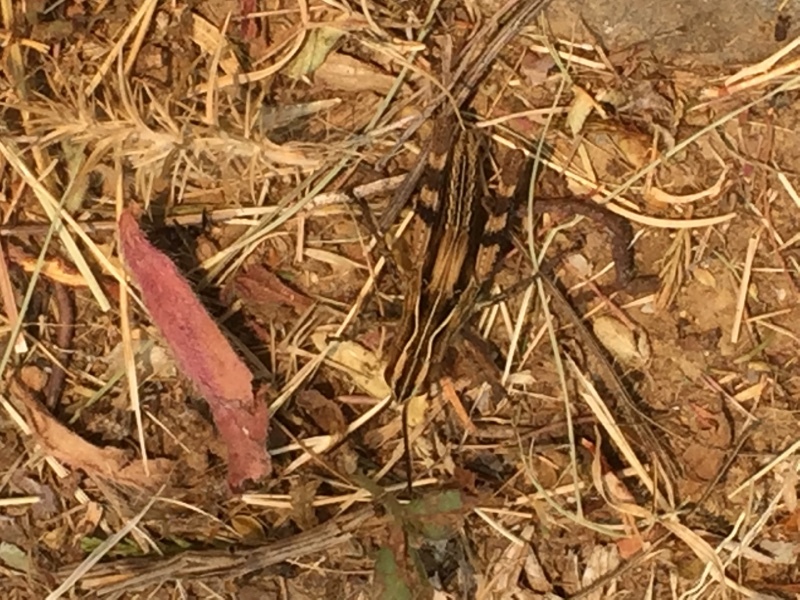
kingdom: Animalia
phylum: Arthropoda
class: Insecta
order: Orthoptera
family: Acrididae
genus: Chorthippus
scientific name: Chorthippus binotatus
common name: Two-marked grasshopper
